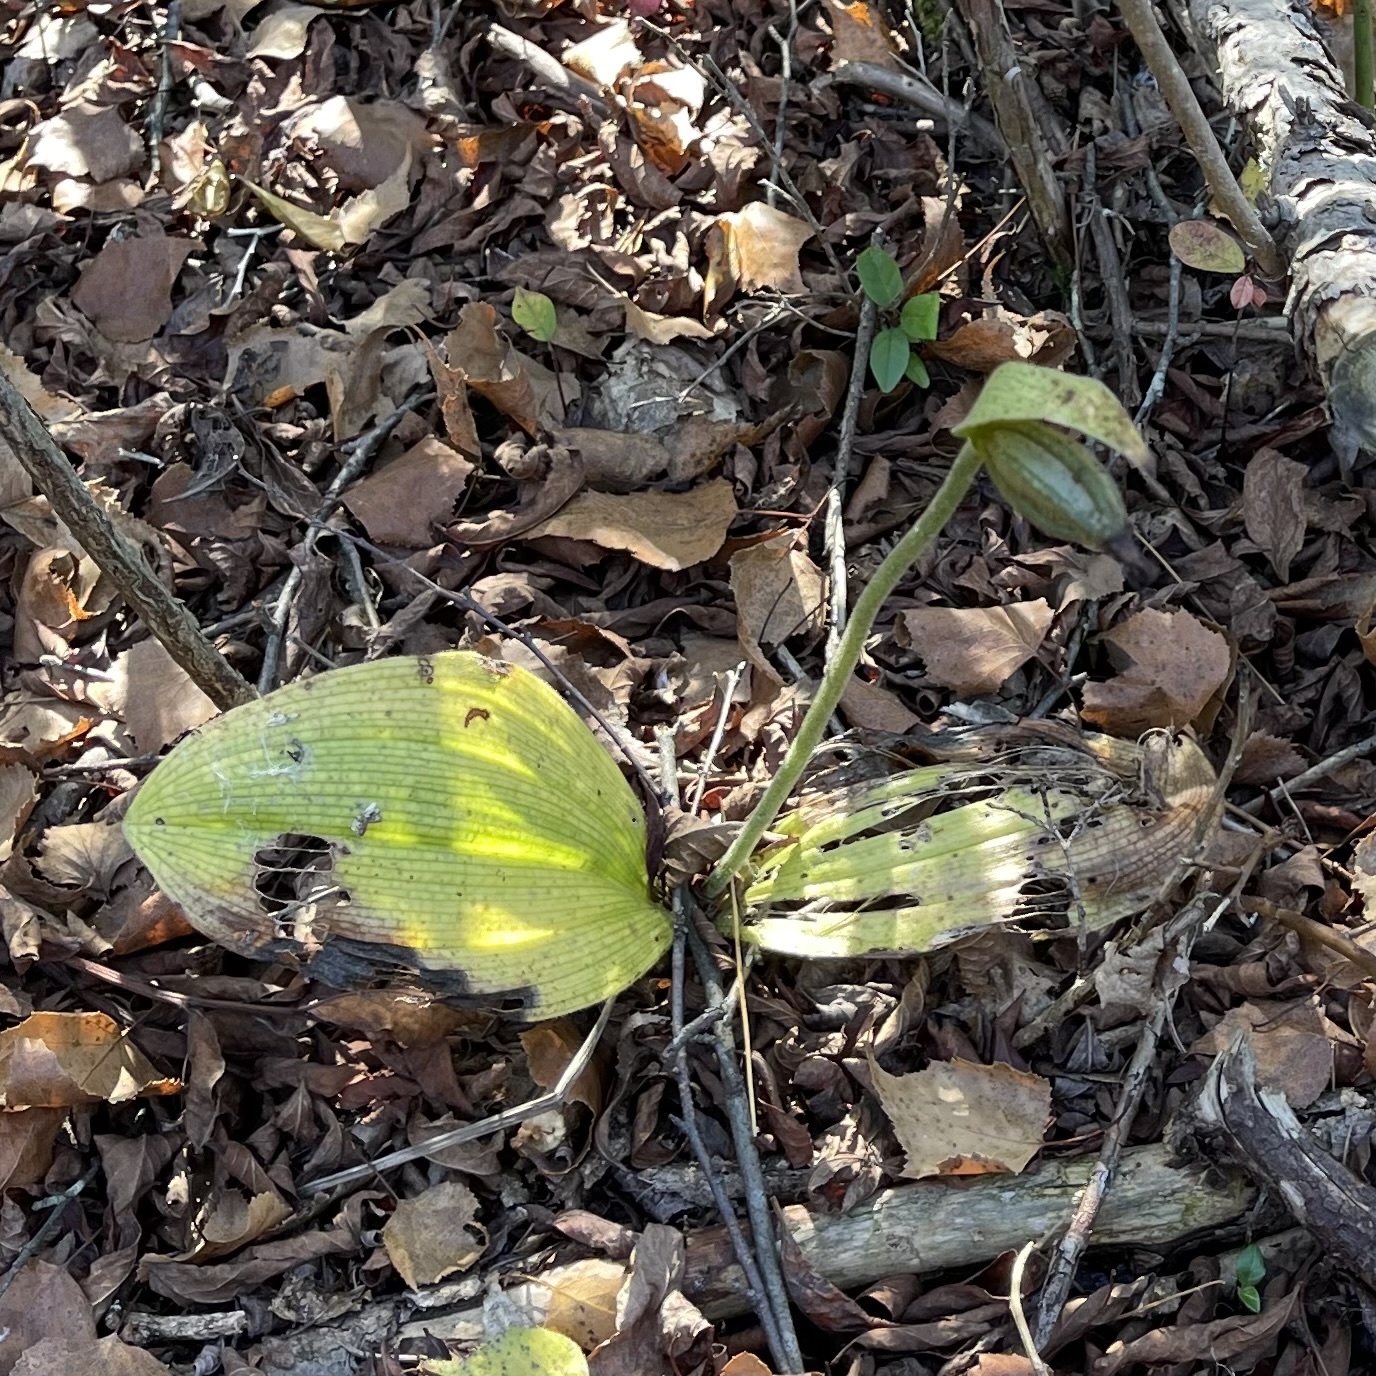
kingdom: Plantae
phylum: Tracheophyta
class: Liliopsida
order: Asparagales
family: Orchidaceae
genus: Cypripedium
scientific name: Cypripedium acaule
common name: Pink lady's-slipper
